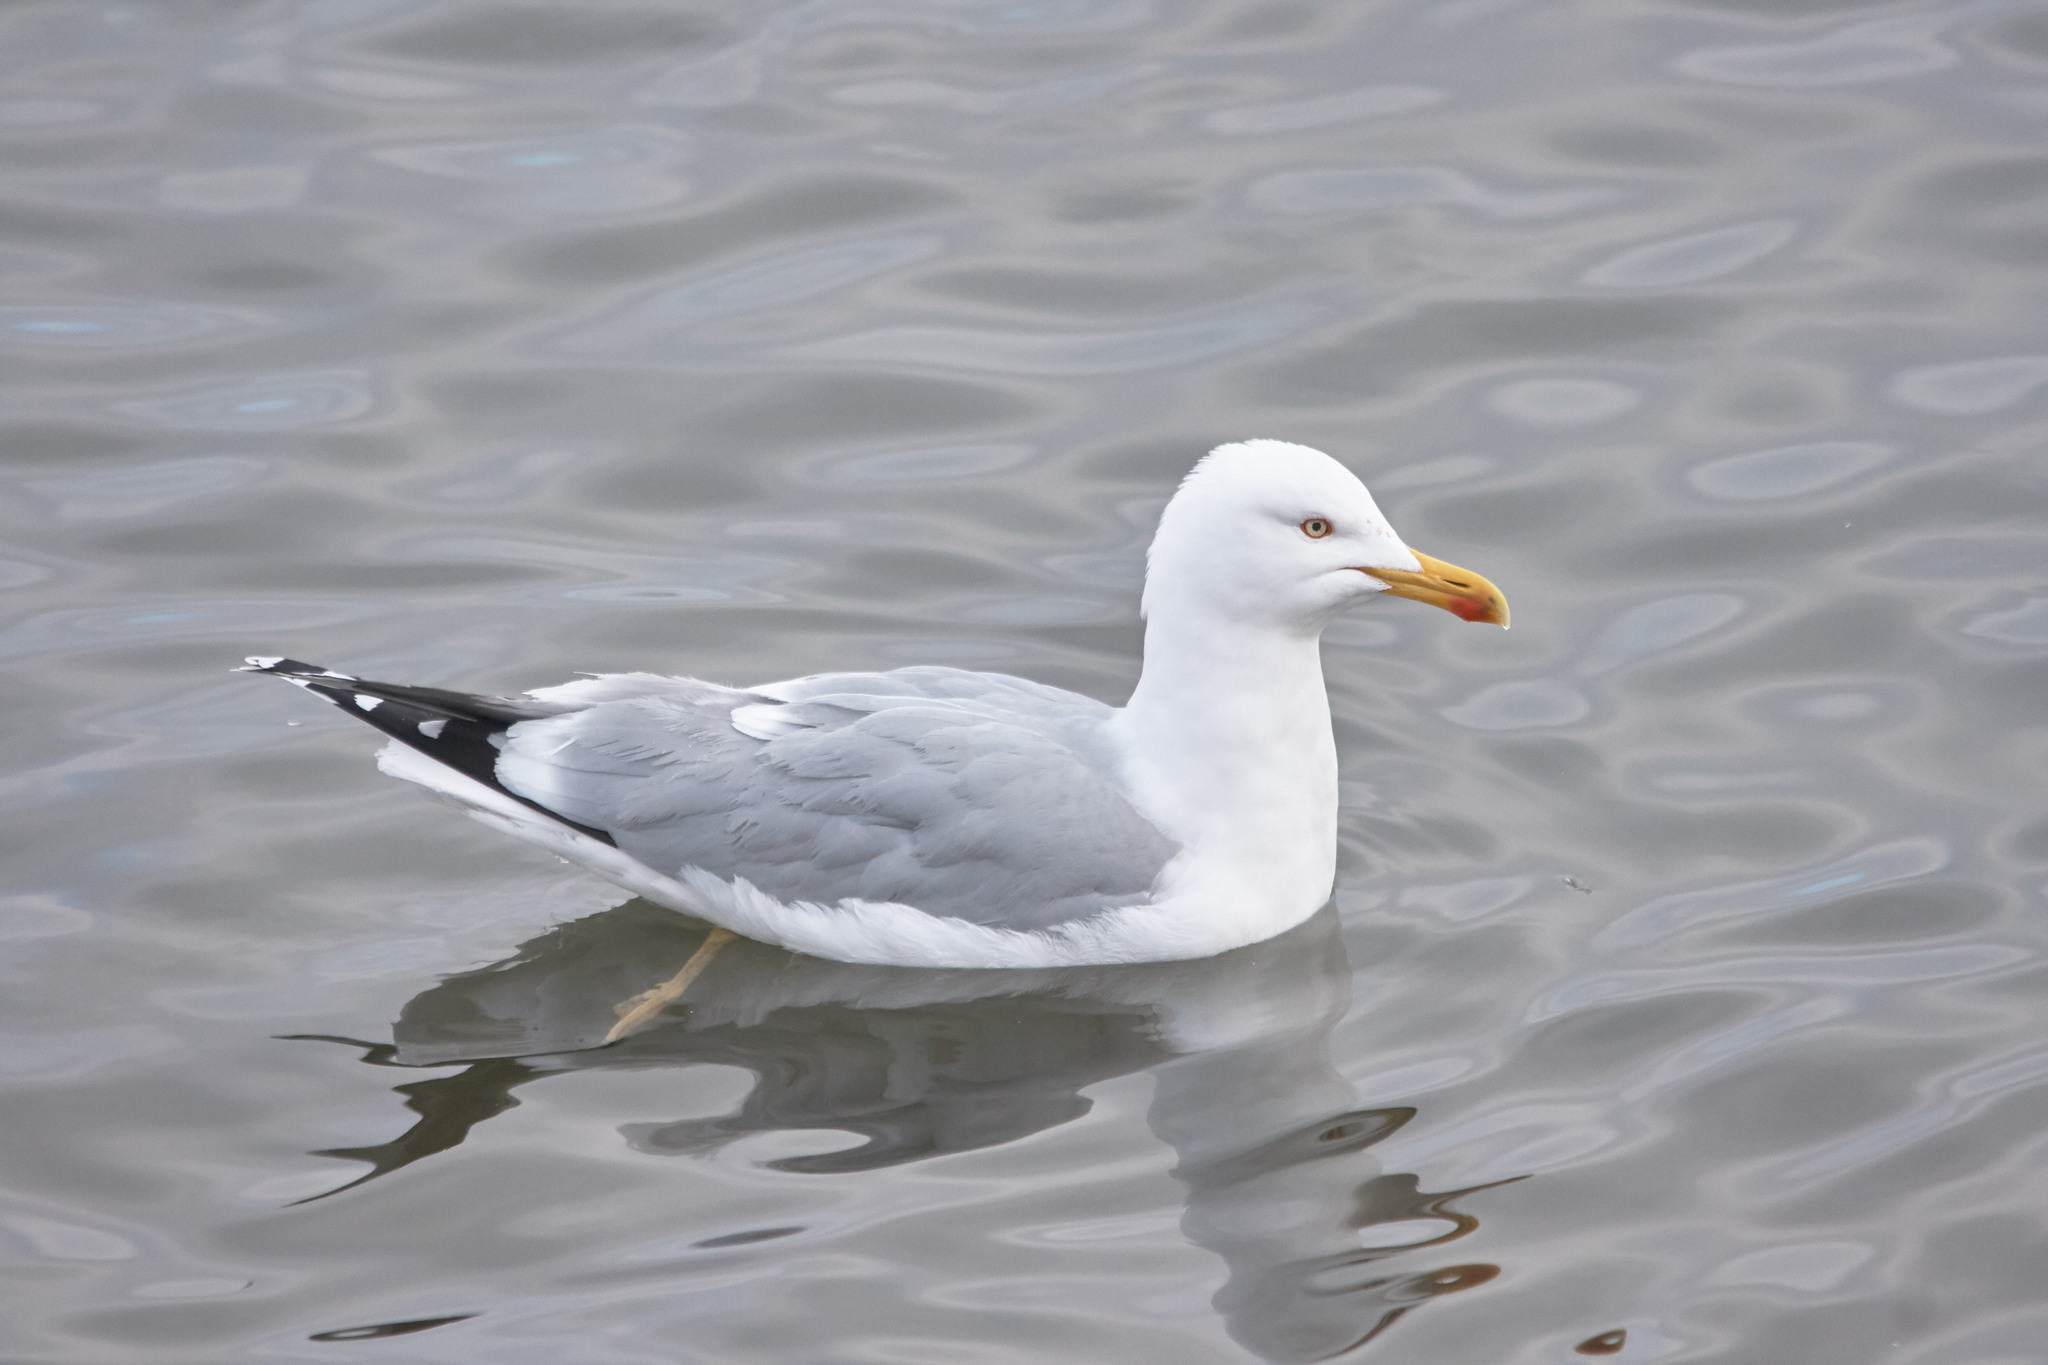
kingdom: Animalia
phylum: Chordata
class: Aves
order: Charadriiformes
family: Laridae
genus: Larus
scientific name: Larus argentatus
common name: Herring gull
